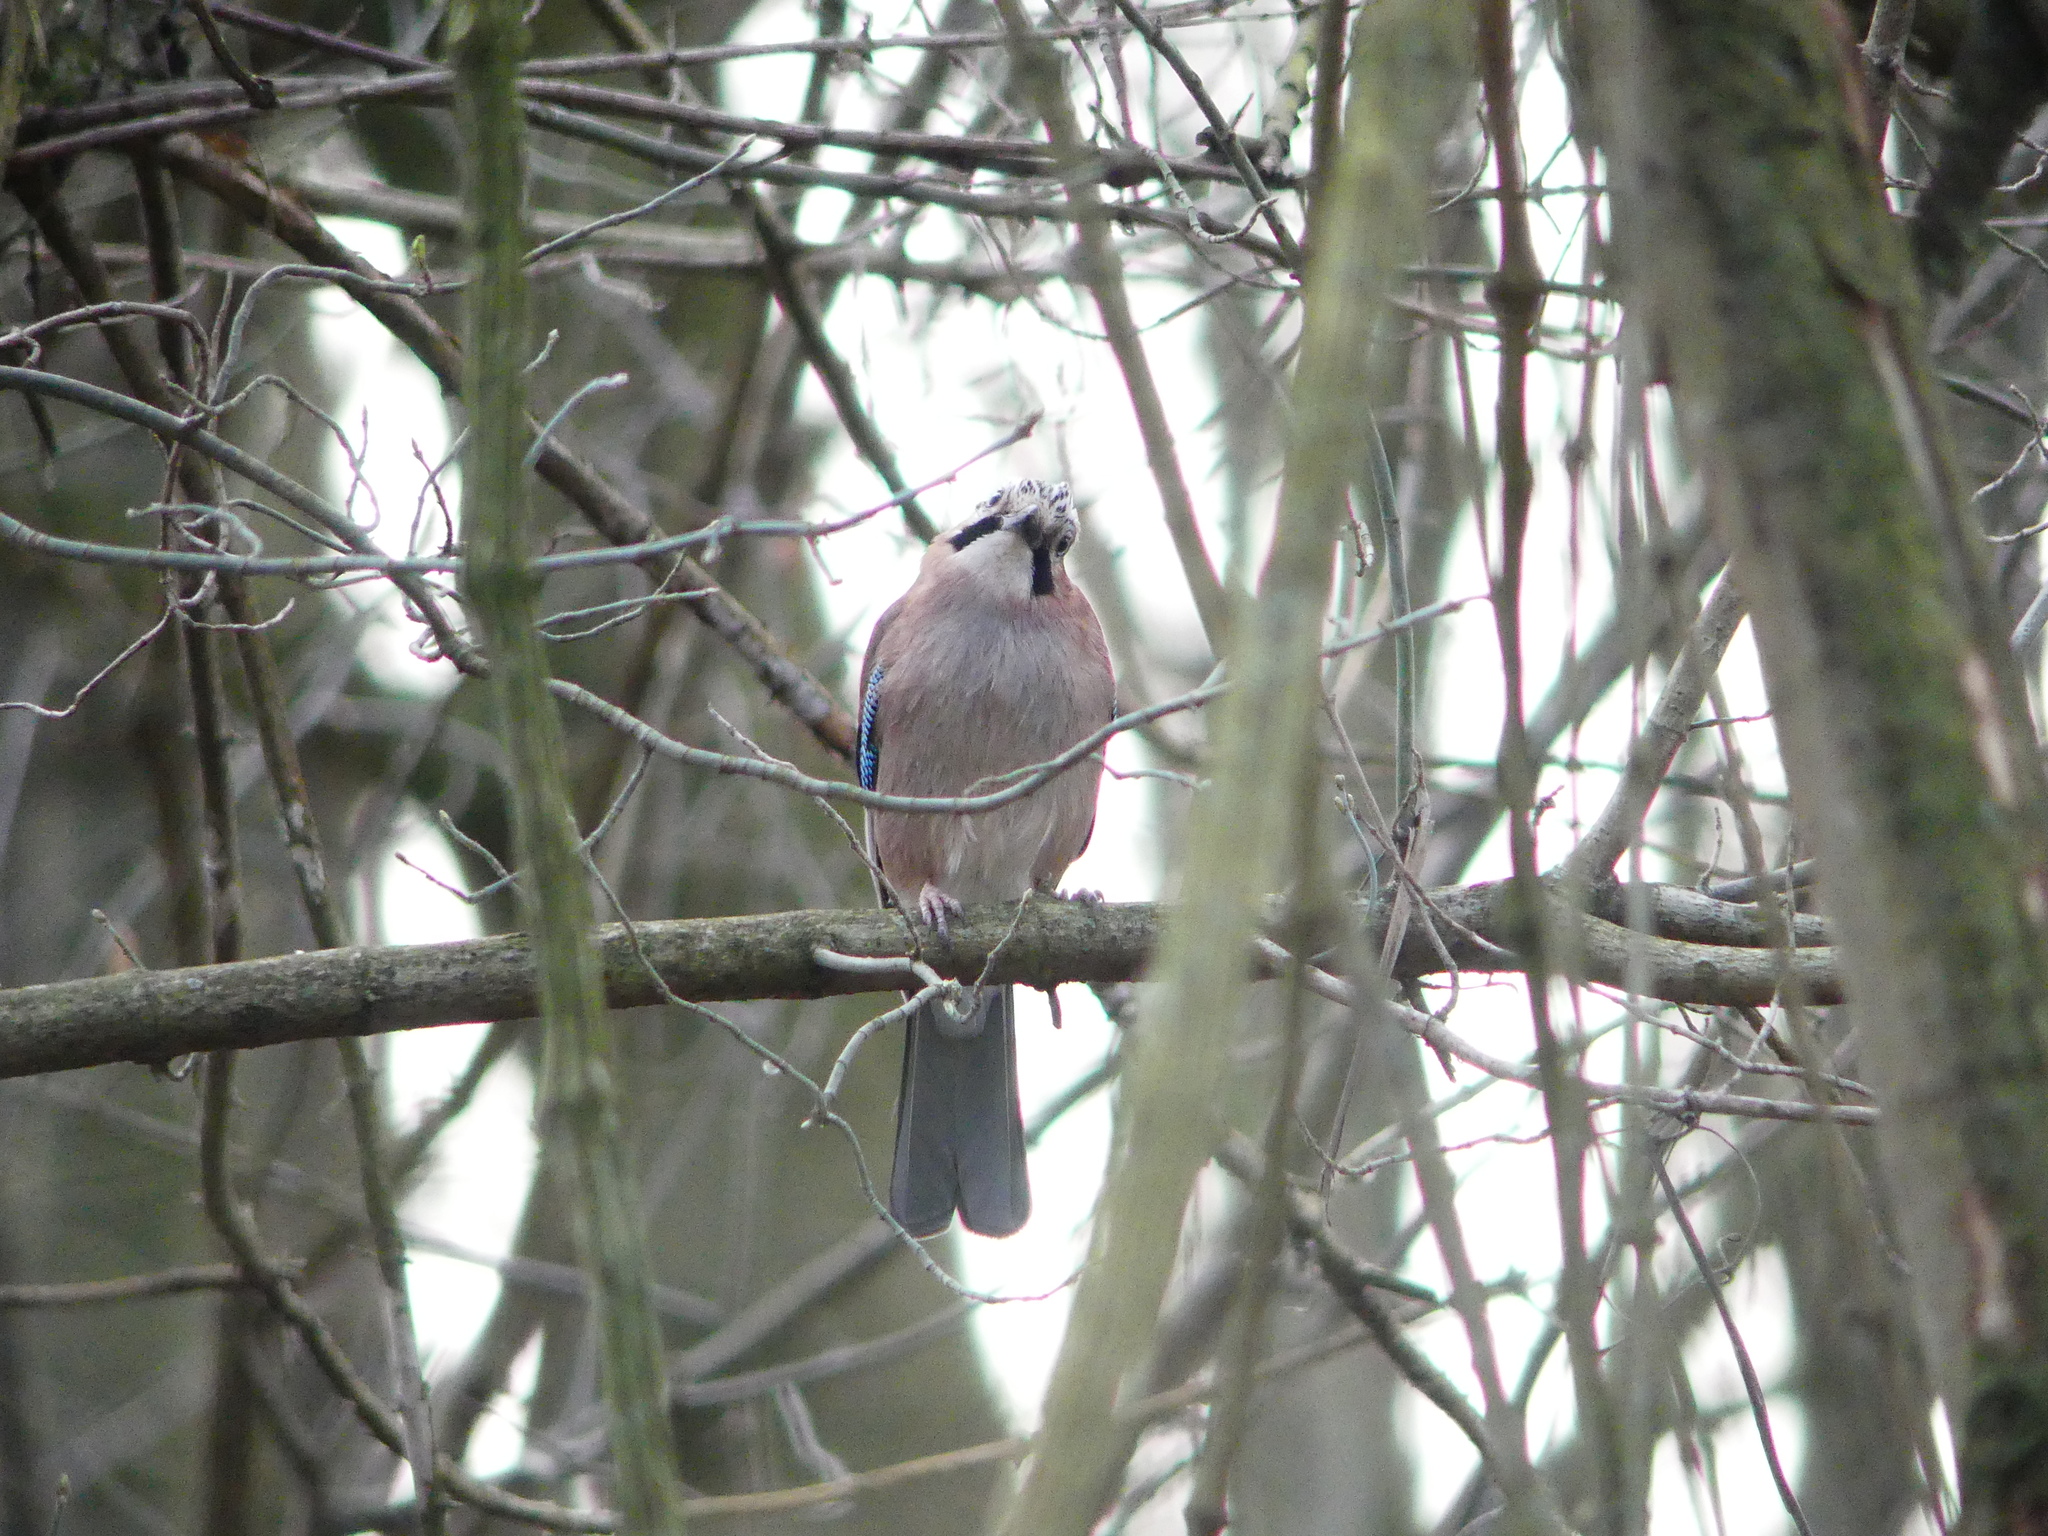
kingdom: Animalia
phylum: Chordata
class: Aves
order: Passeriformes
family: Corvidae
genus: Garrulus
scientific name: Garrulus glandarius
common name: Eurasian jay
